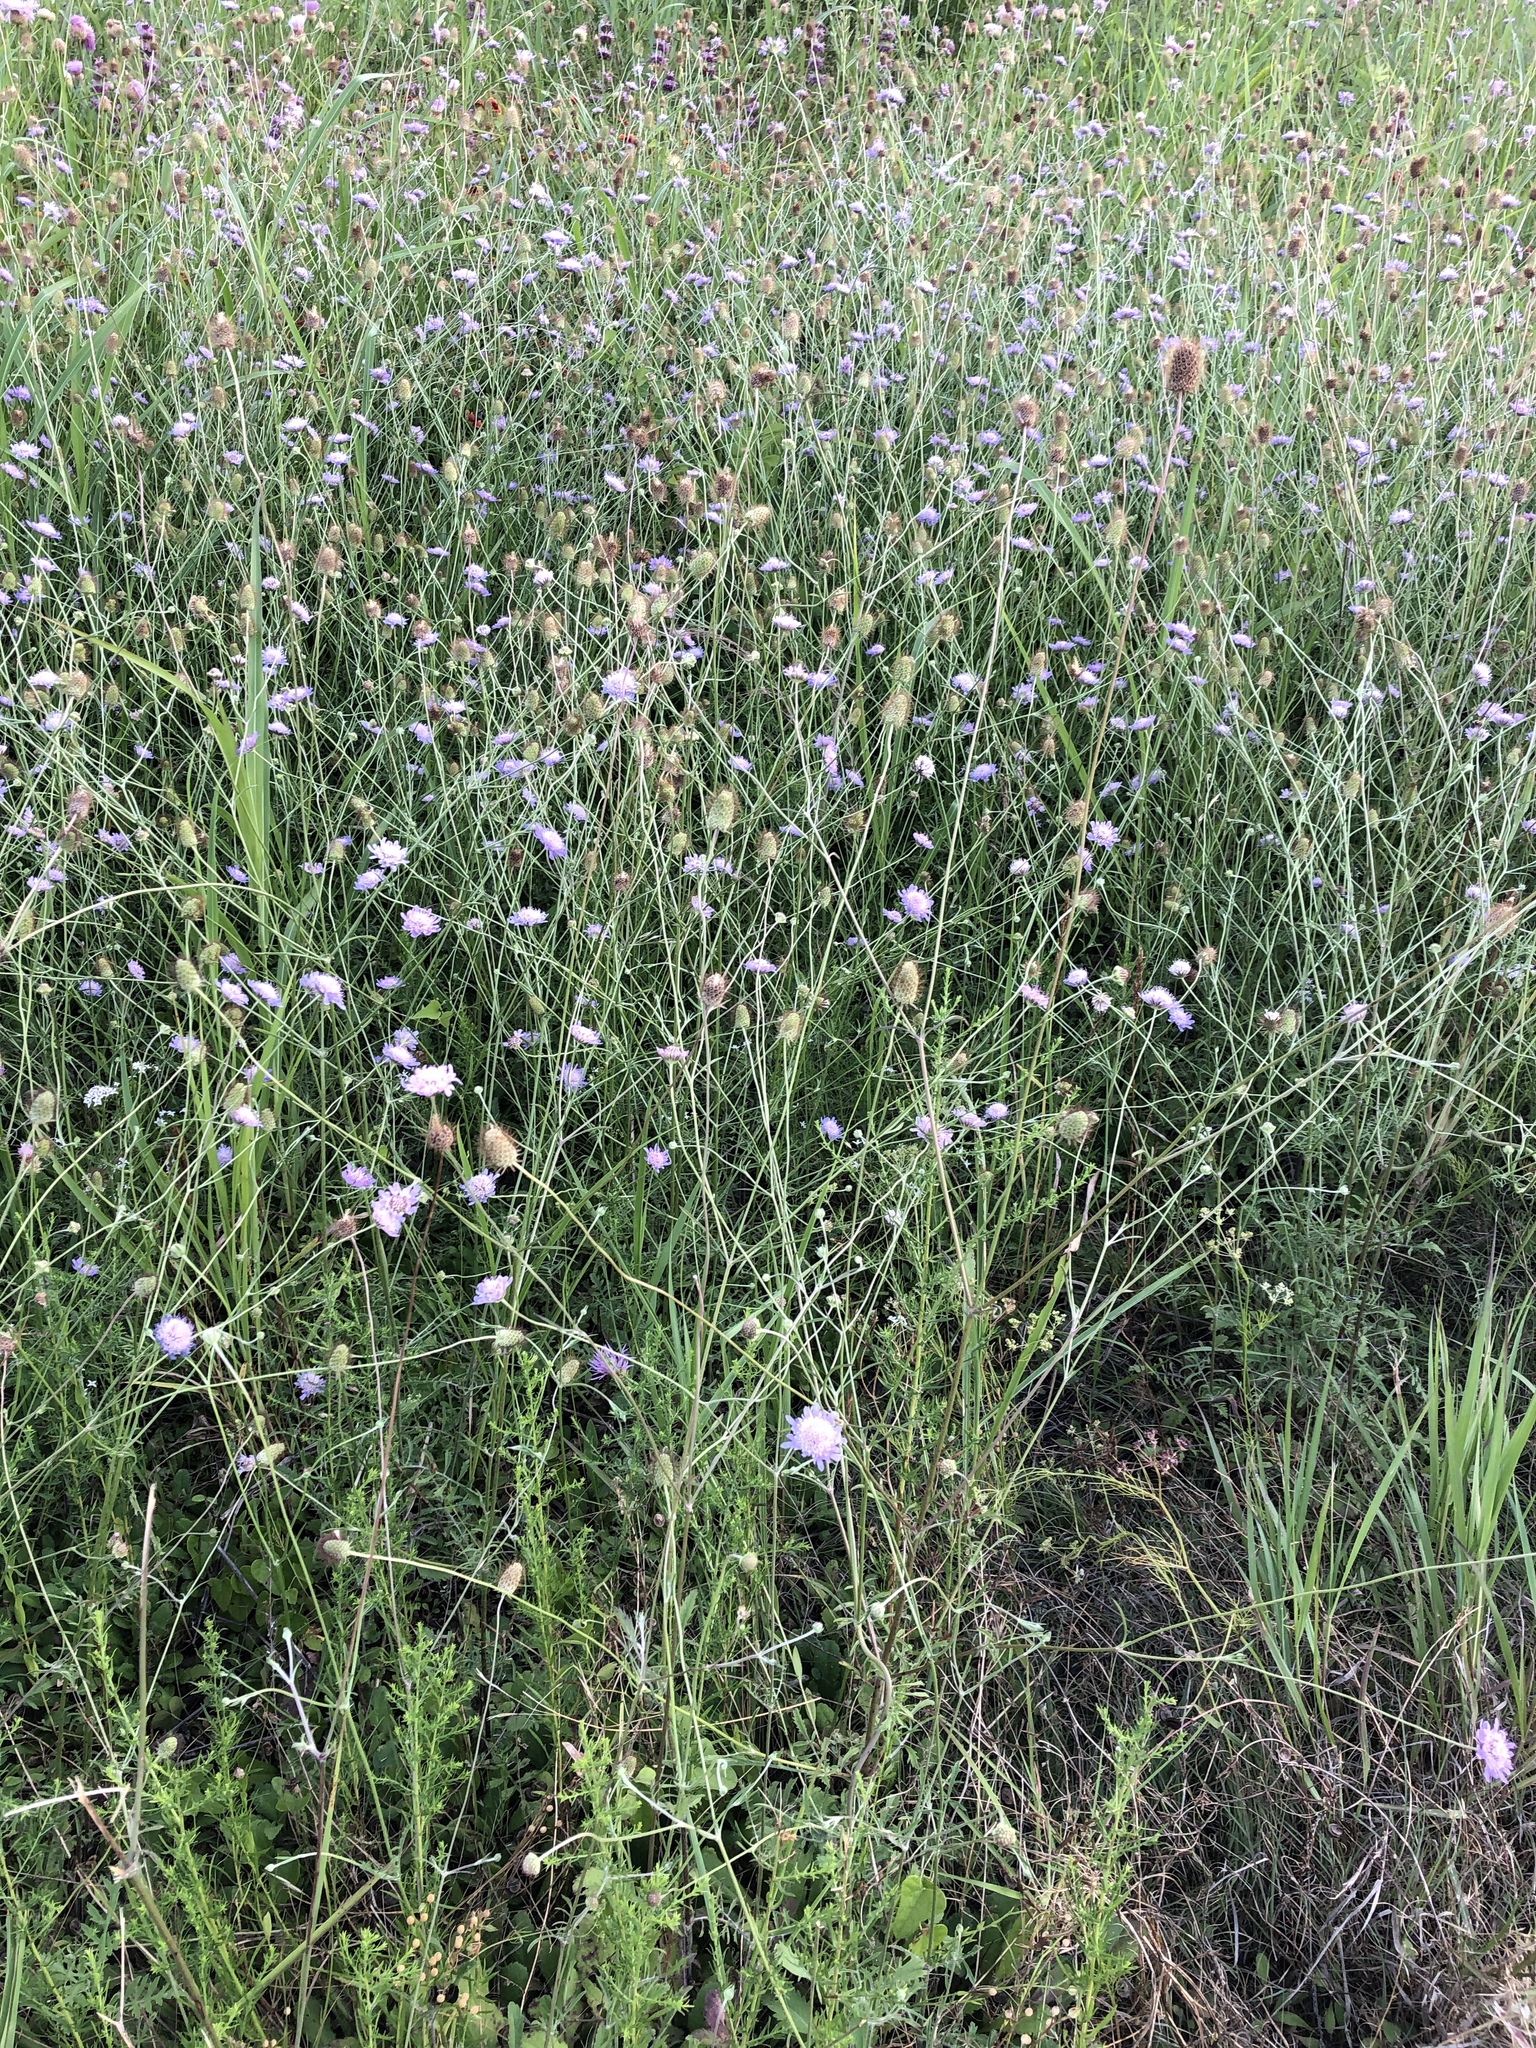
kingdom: Plantae
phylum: Tracheophyta
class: Magnoliopsida
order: Dipsacales
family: Caprifoliaceae
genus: Sixalix
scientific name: Sixalix atropurpurea
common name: Sweet scabious
